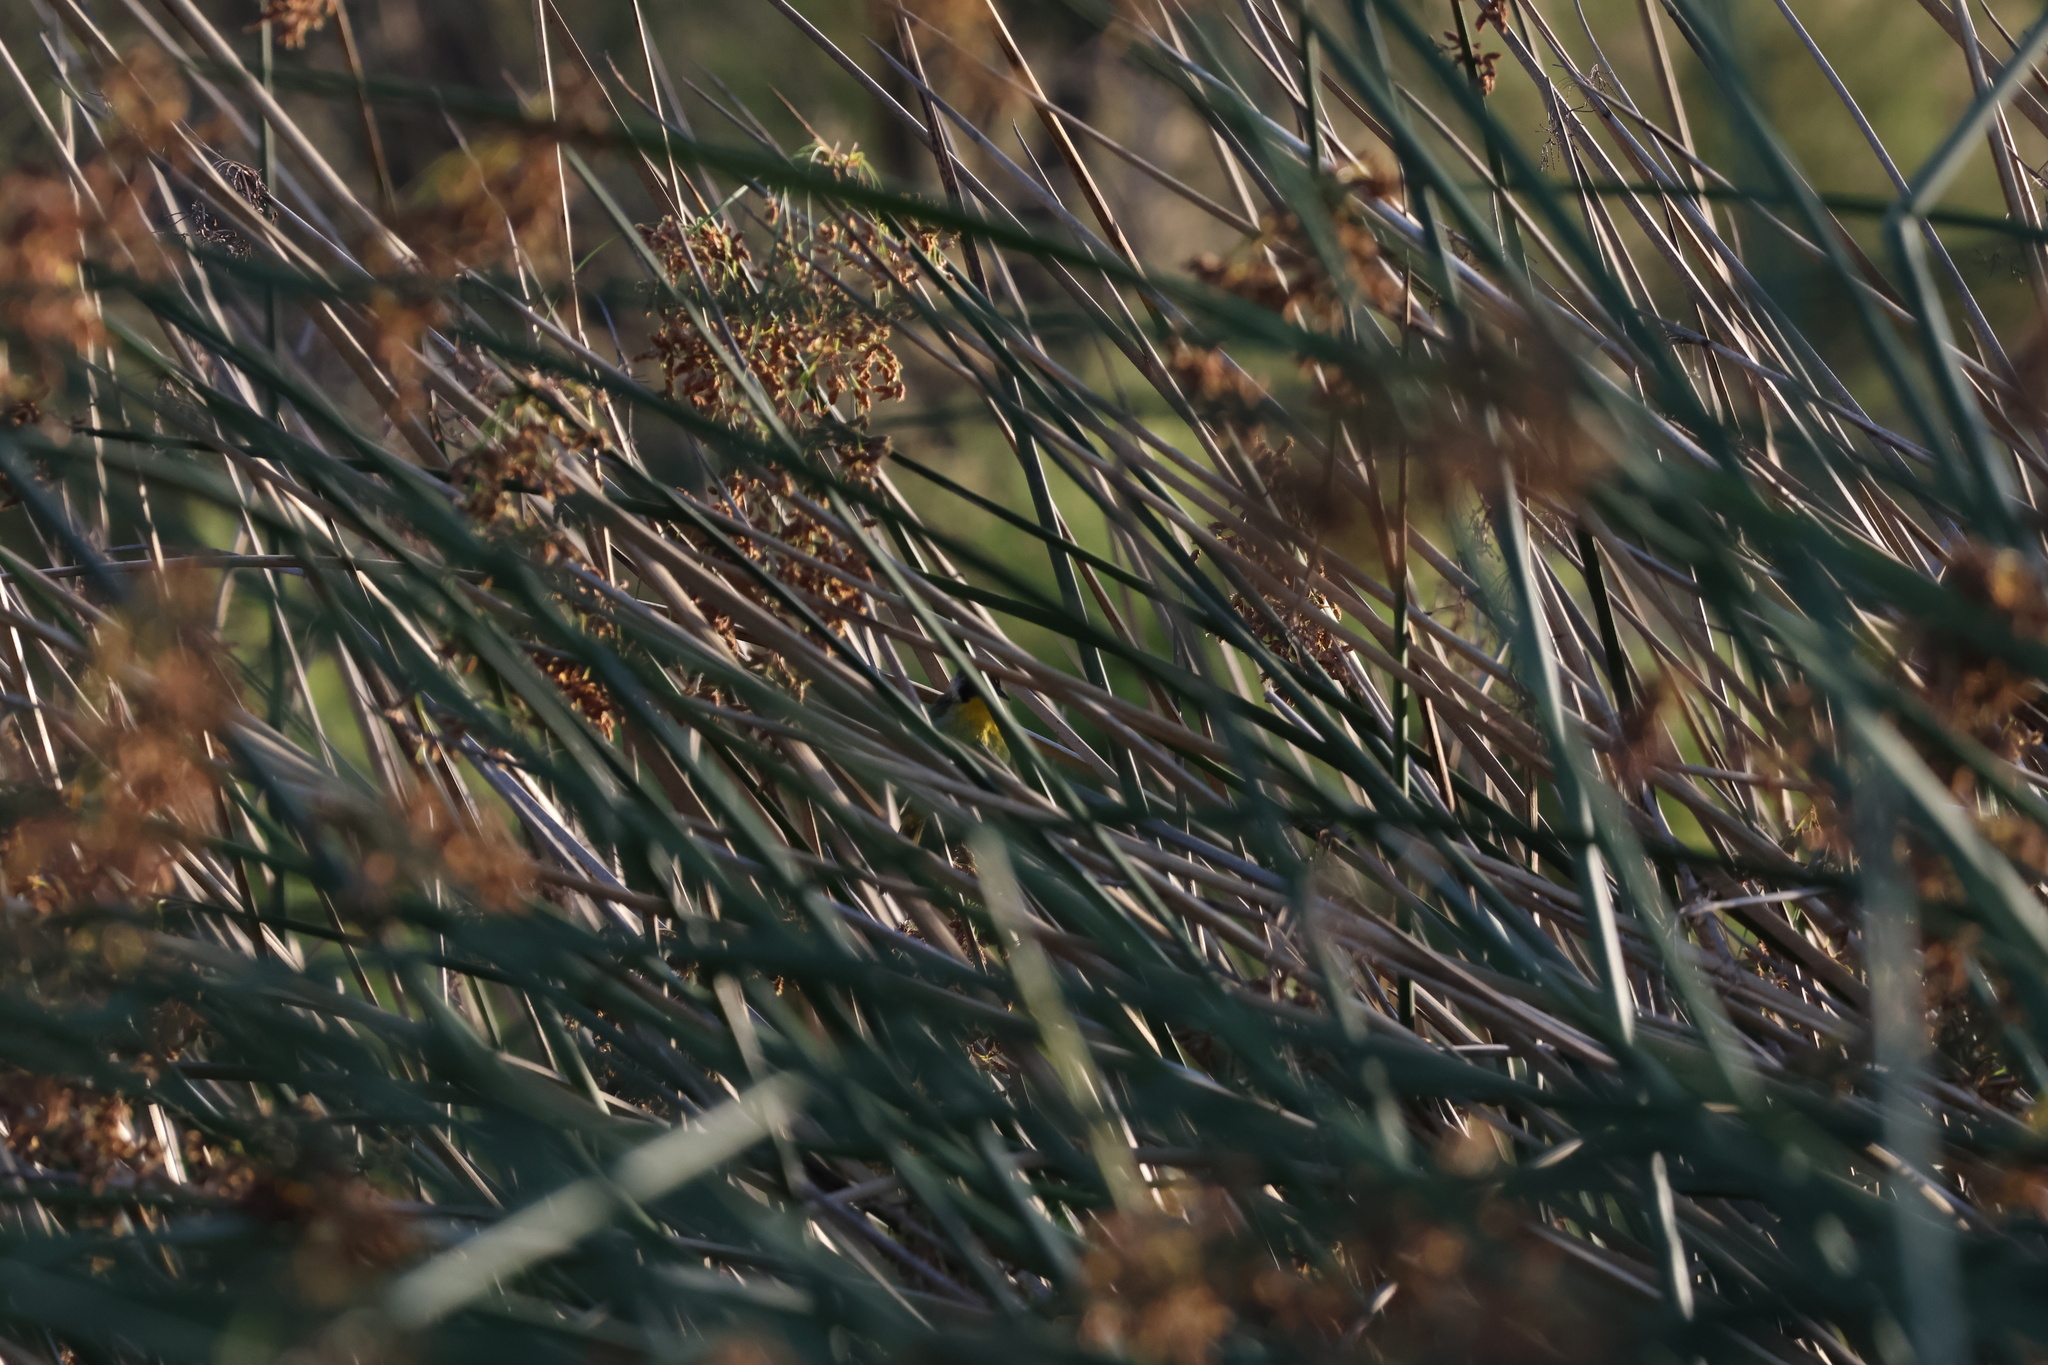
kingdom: Animalia
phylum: Chordata
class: Aves
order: Passeriformes
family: Parulidae
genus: Geothlypis
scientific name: Geothlypis trichas
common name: Common yellowthroat
